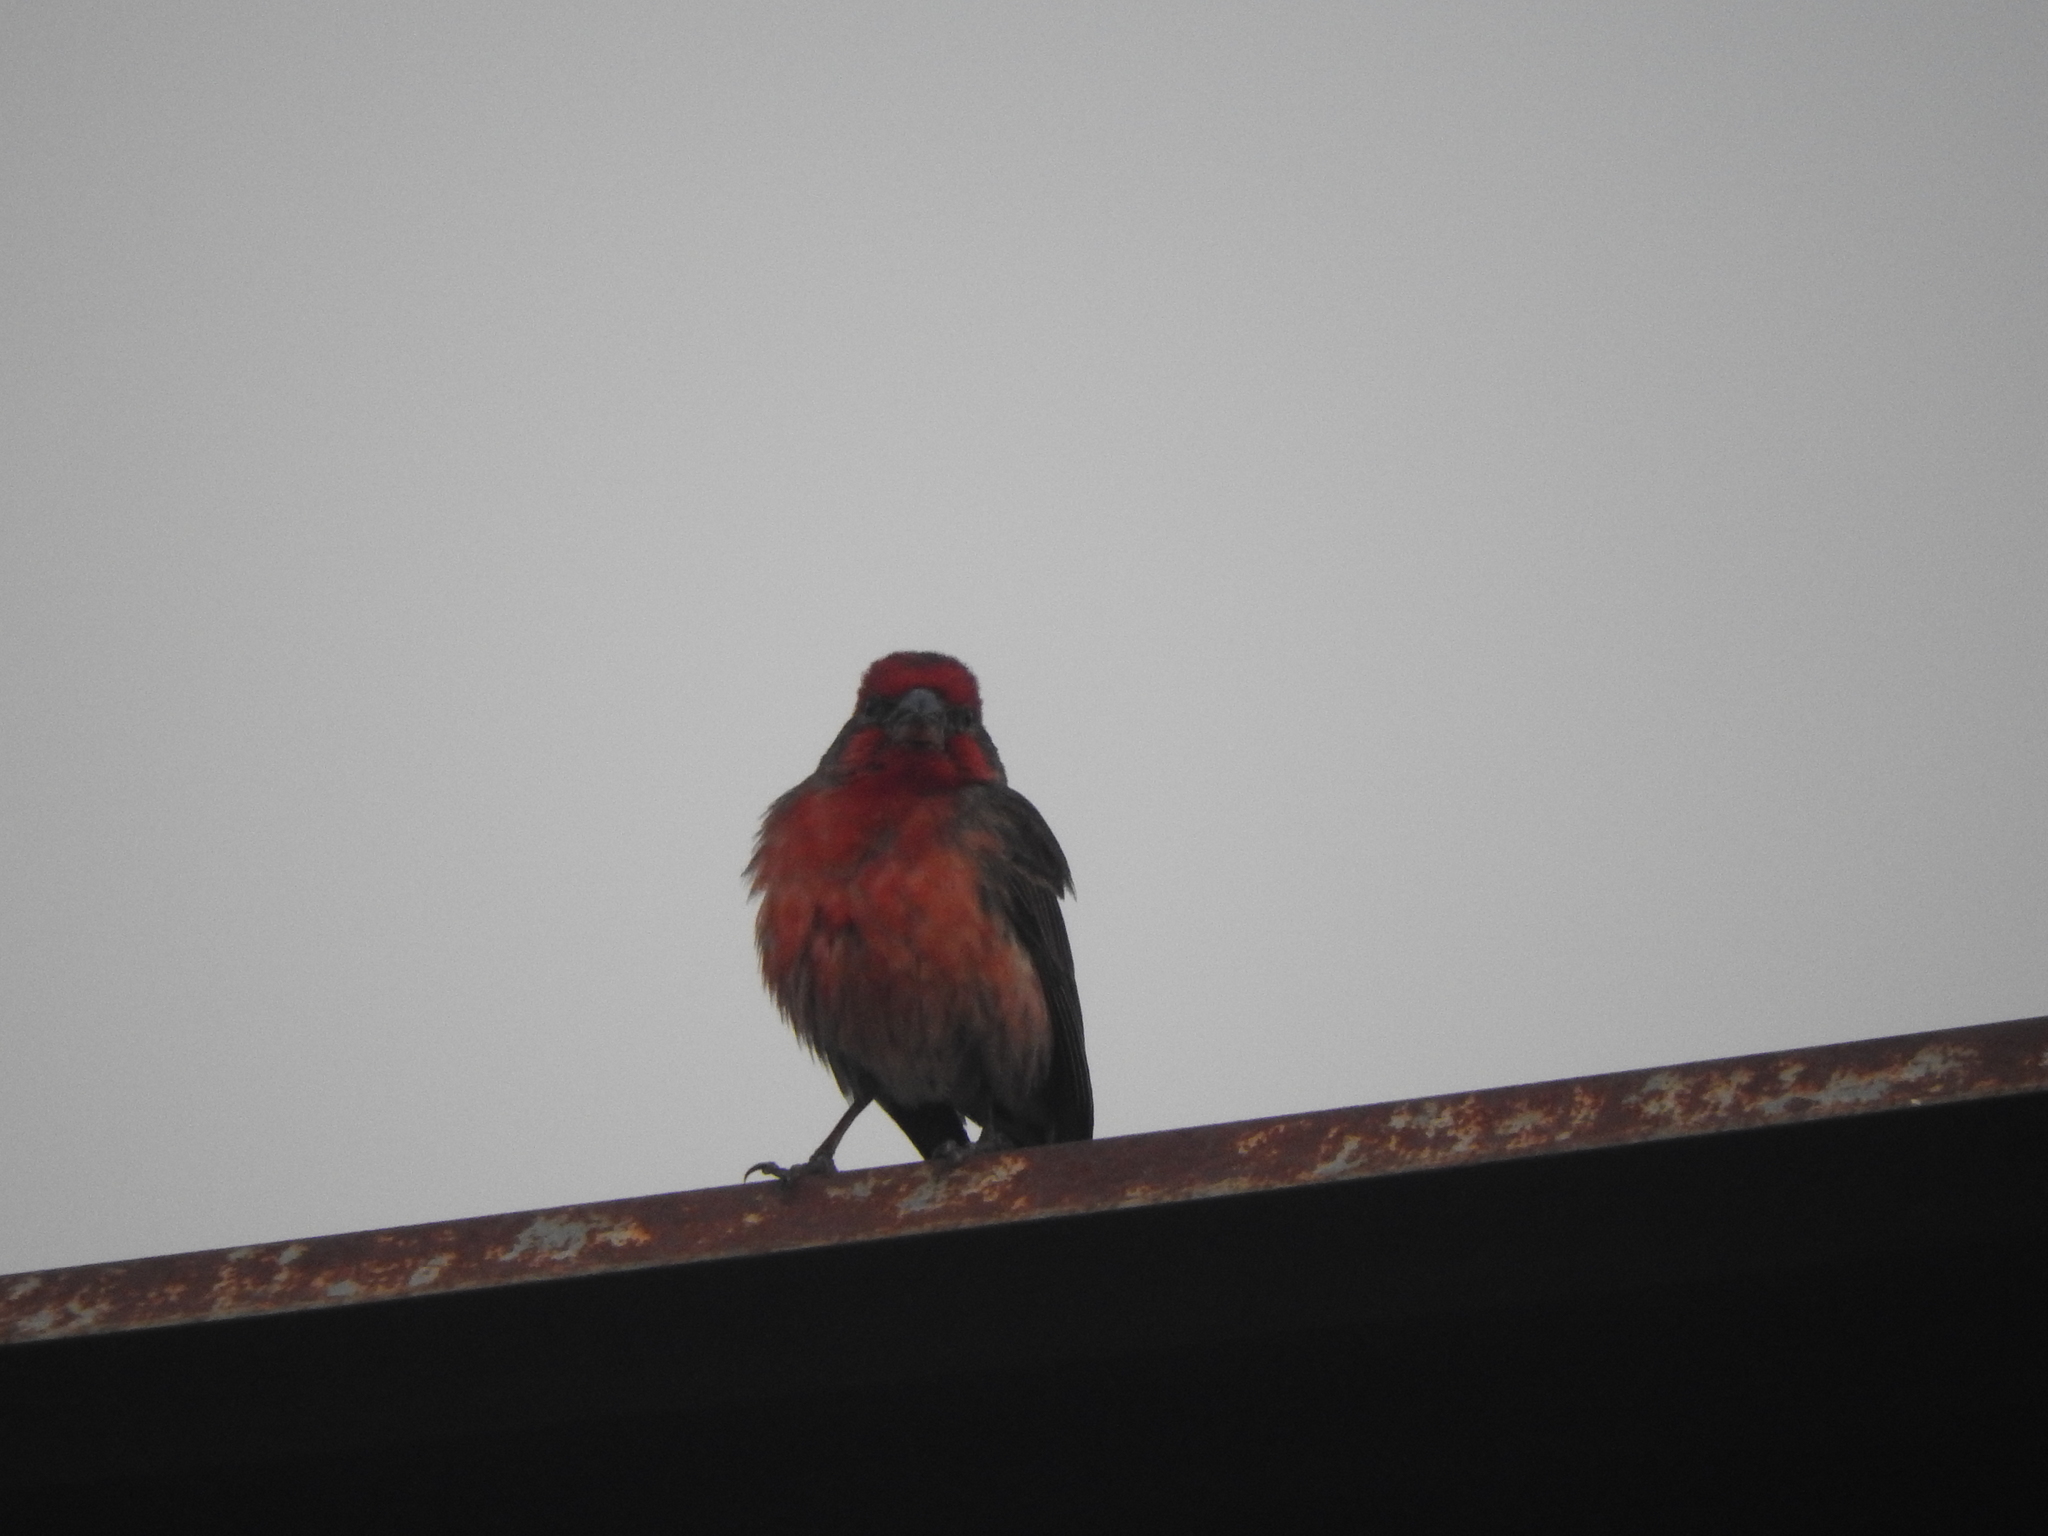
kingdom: Animalia
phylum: Chordata
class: Aves
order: Passeriformes
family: Fringillidae
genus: Haemorhous
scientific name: Haemorhous mexicanus
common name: House finch
